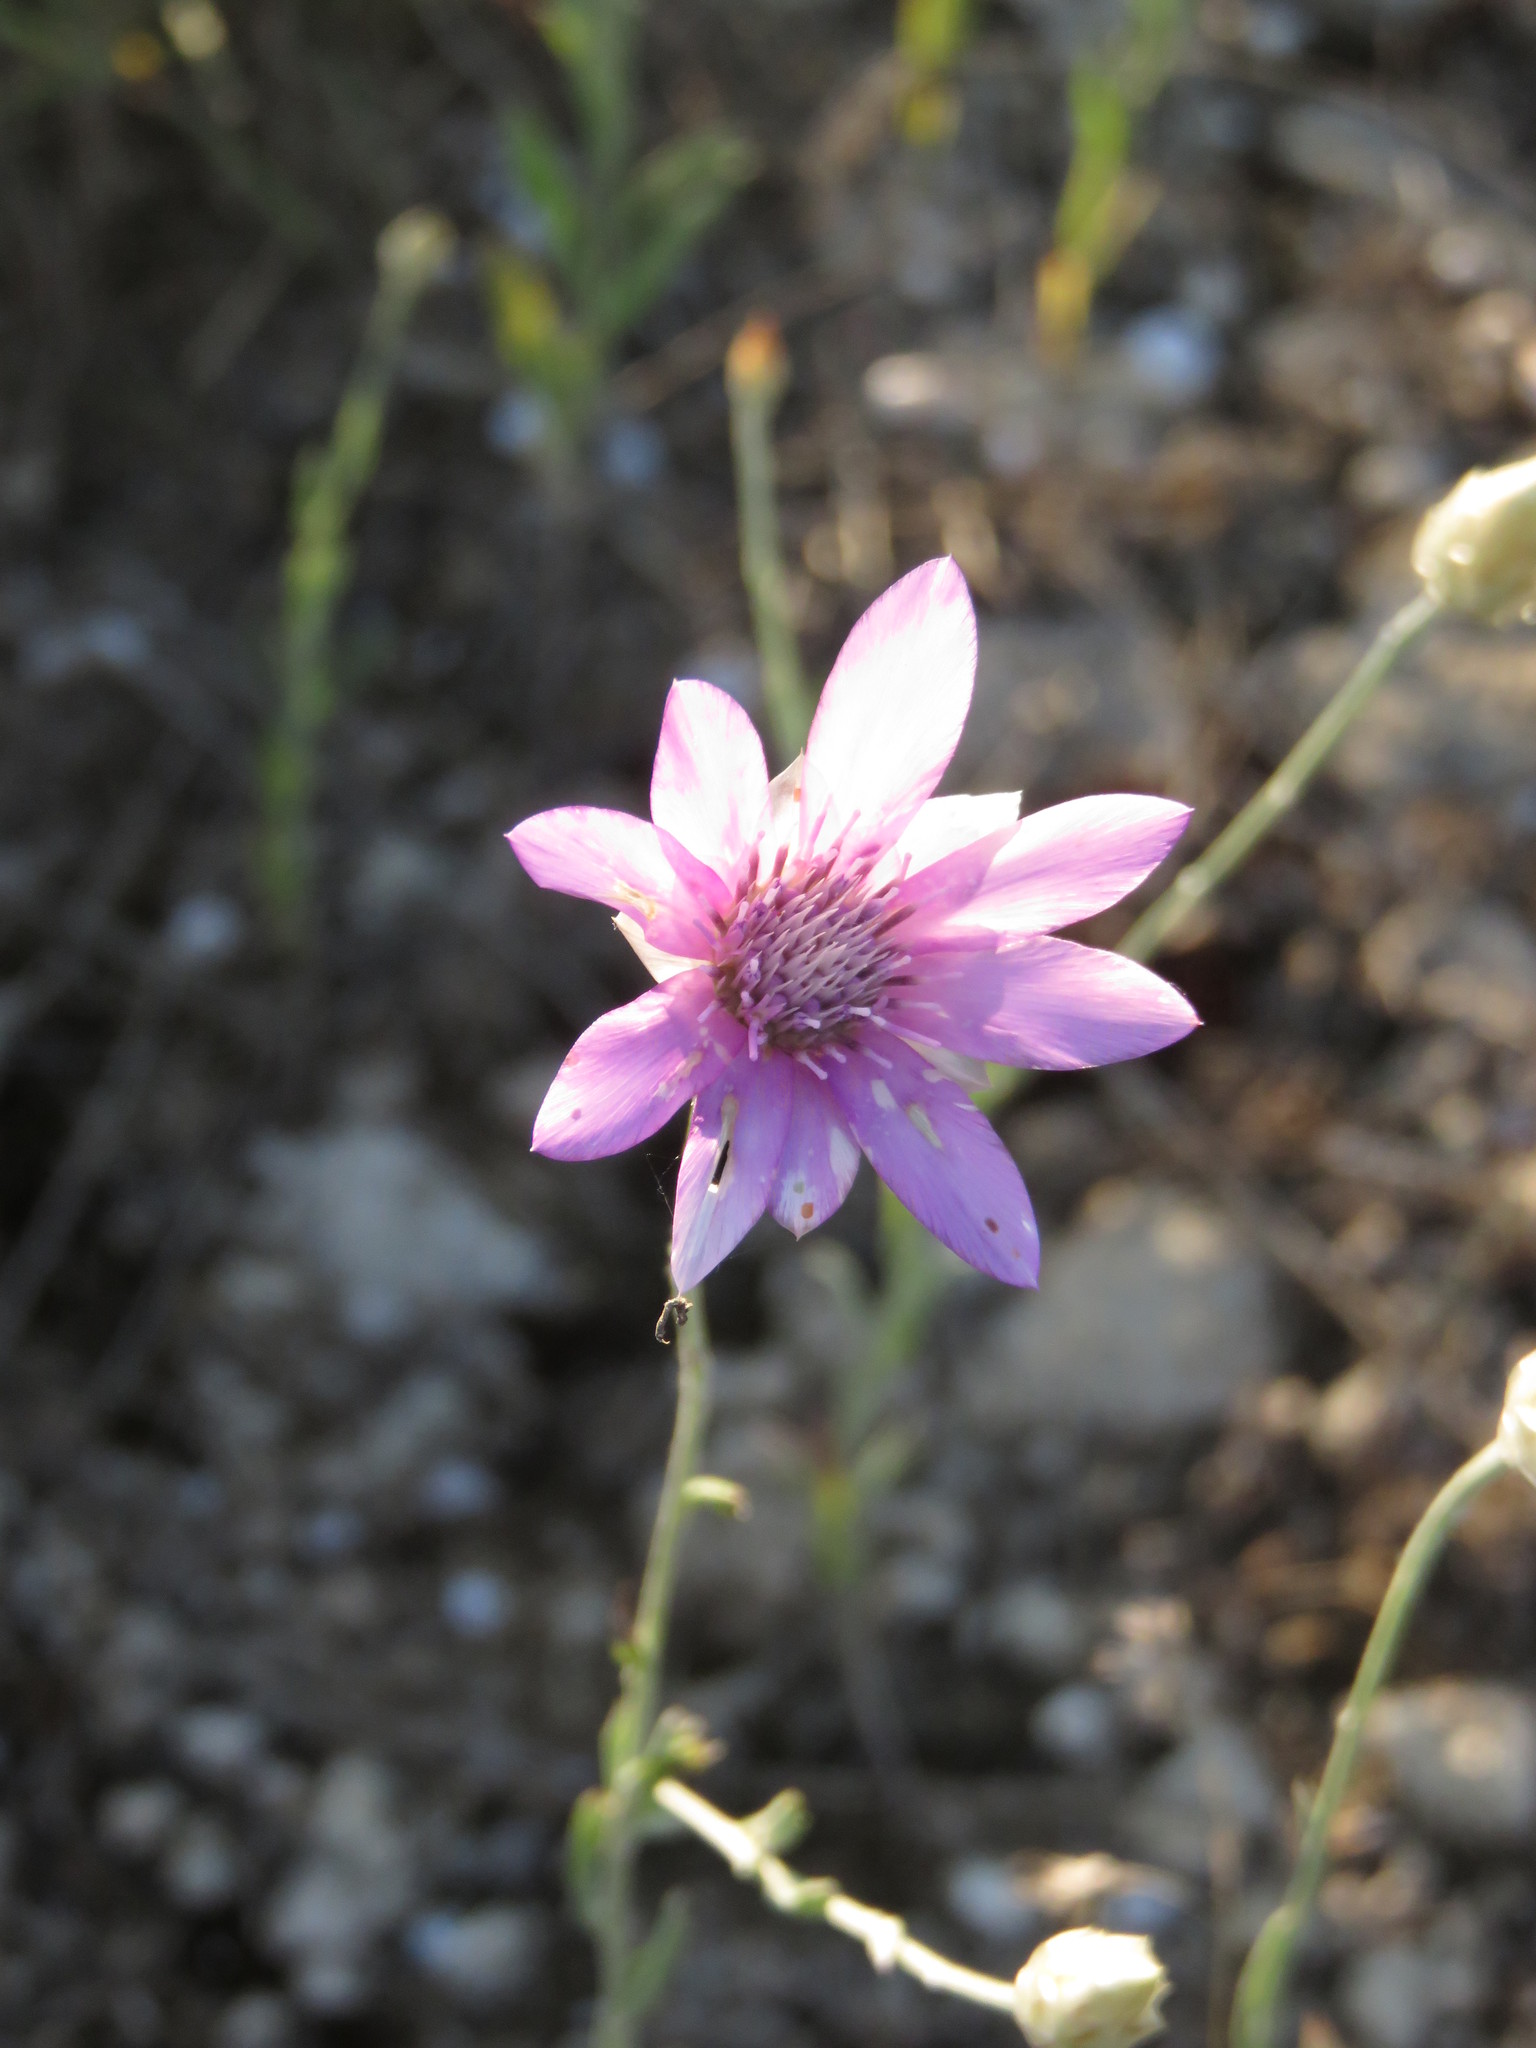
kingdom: Plantae
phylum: Tracheophyta
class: Magnoliopsida
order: Asterales
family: Asteraceae
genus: Xeranthemum
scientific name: Xeranthemum annuum
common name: Immortelle
